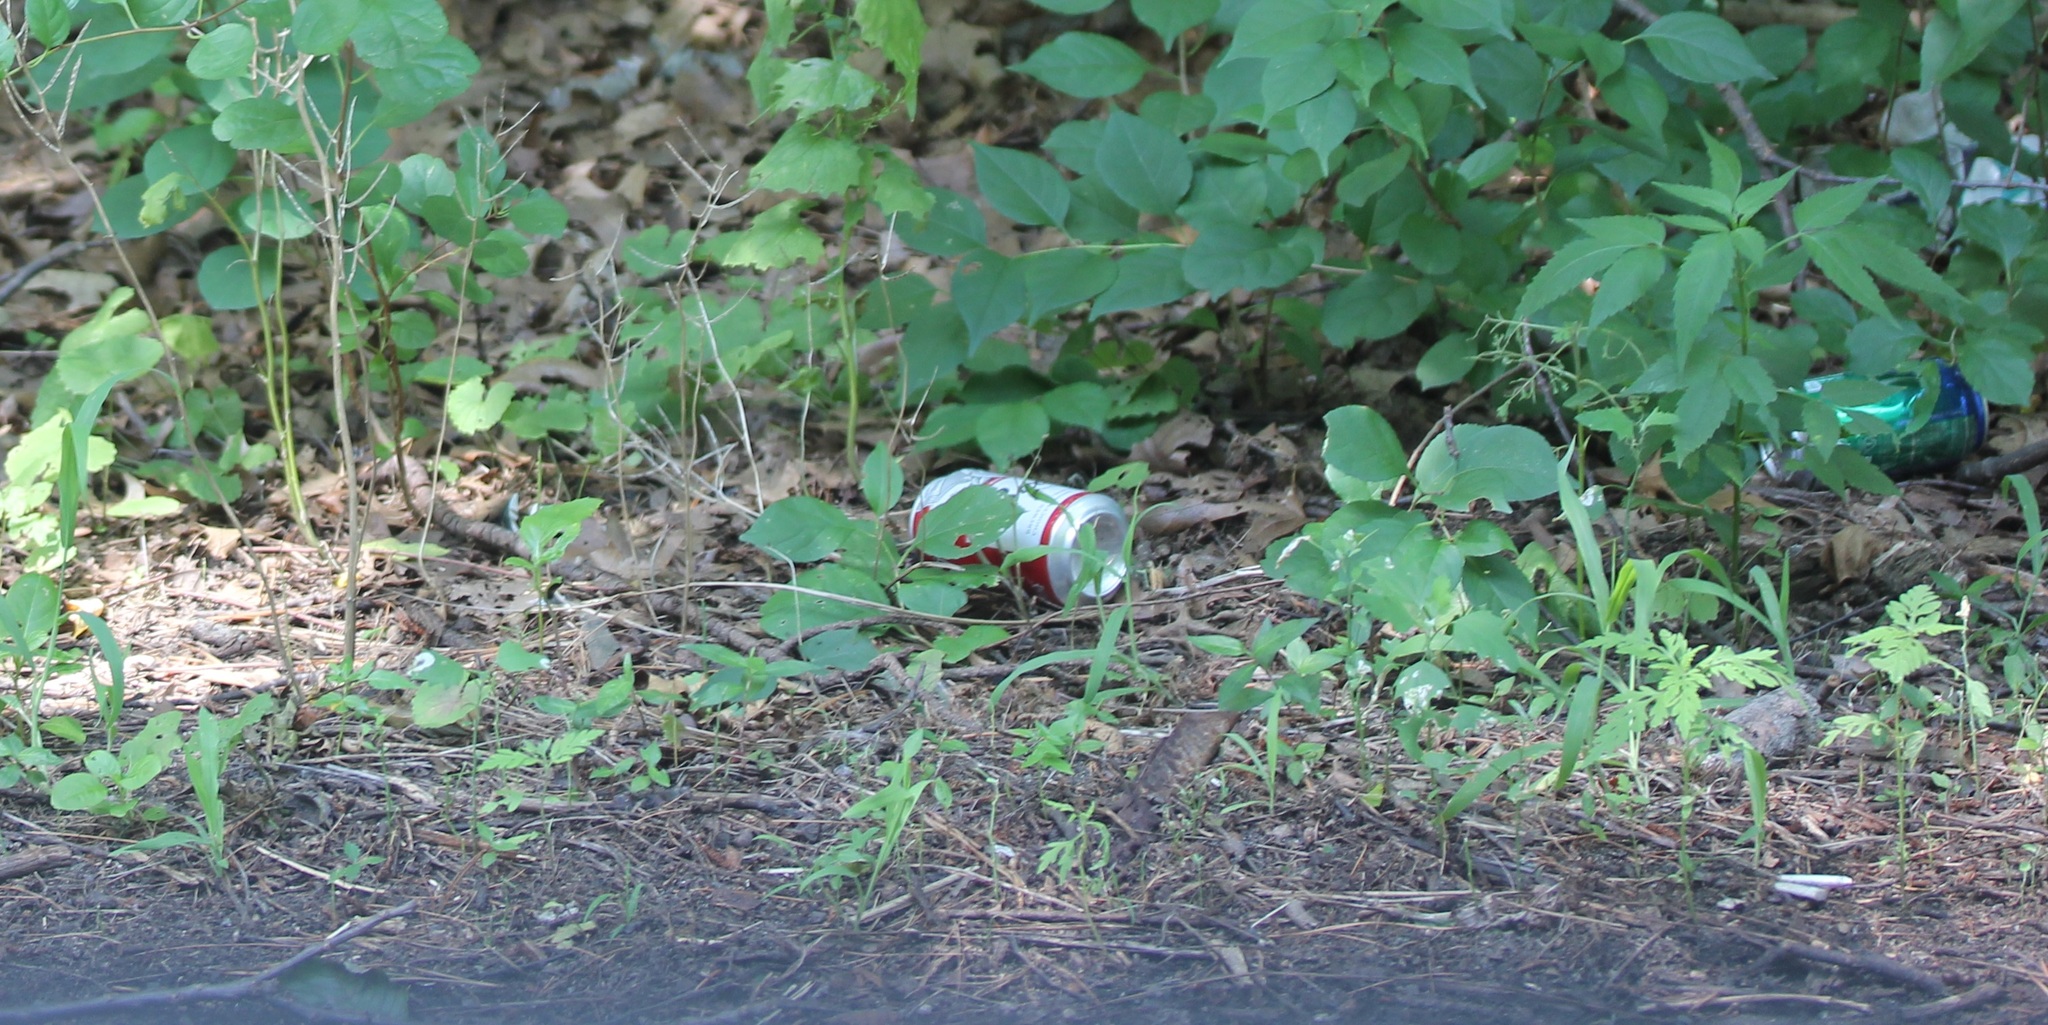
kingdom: Plantae
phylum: Tracheophyta
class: Magnoliopsida
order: Asterales
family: Asteraceae
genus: Ambrosia
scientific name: Ambrosia artemisiifolia
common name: Annual ragweed
